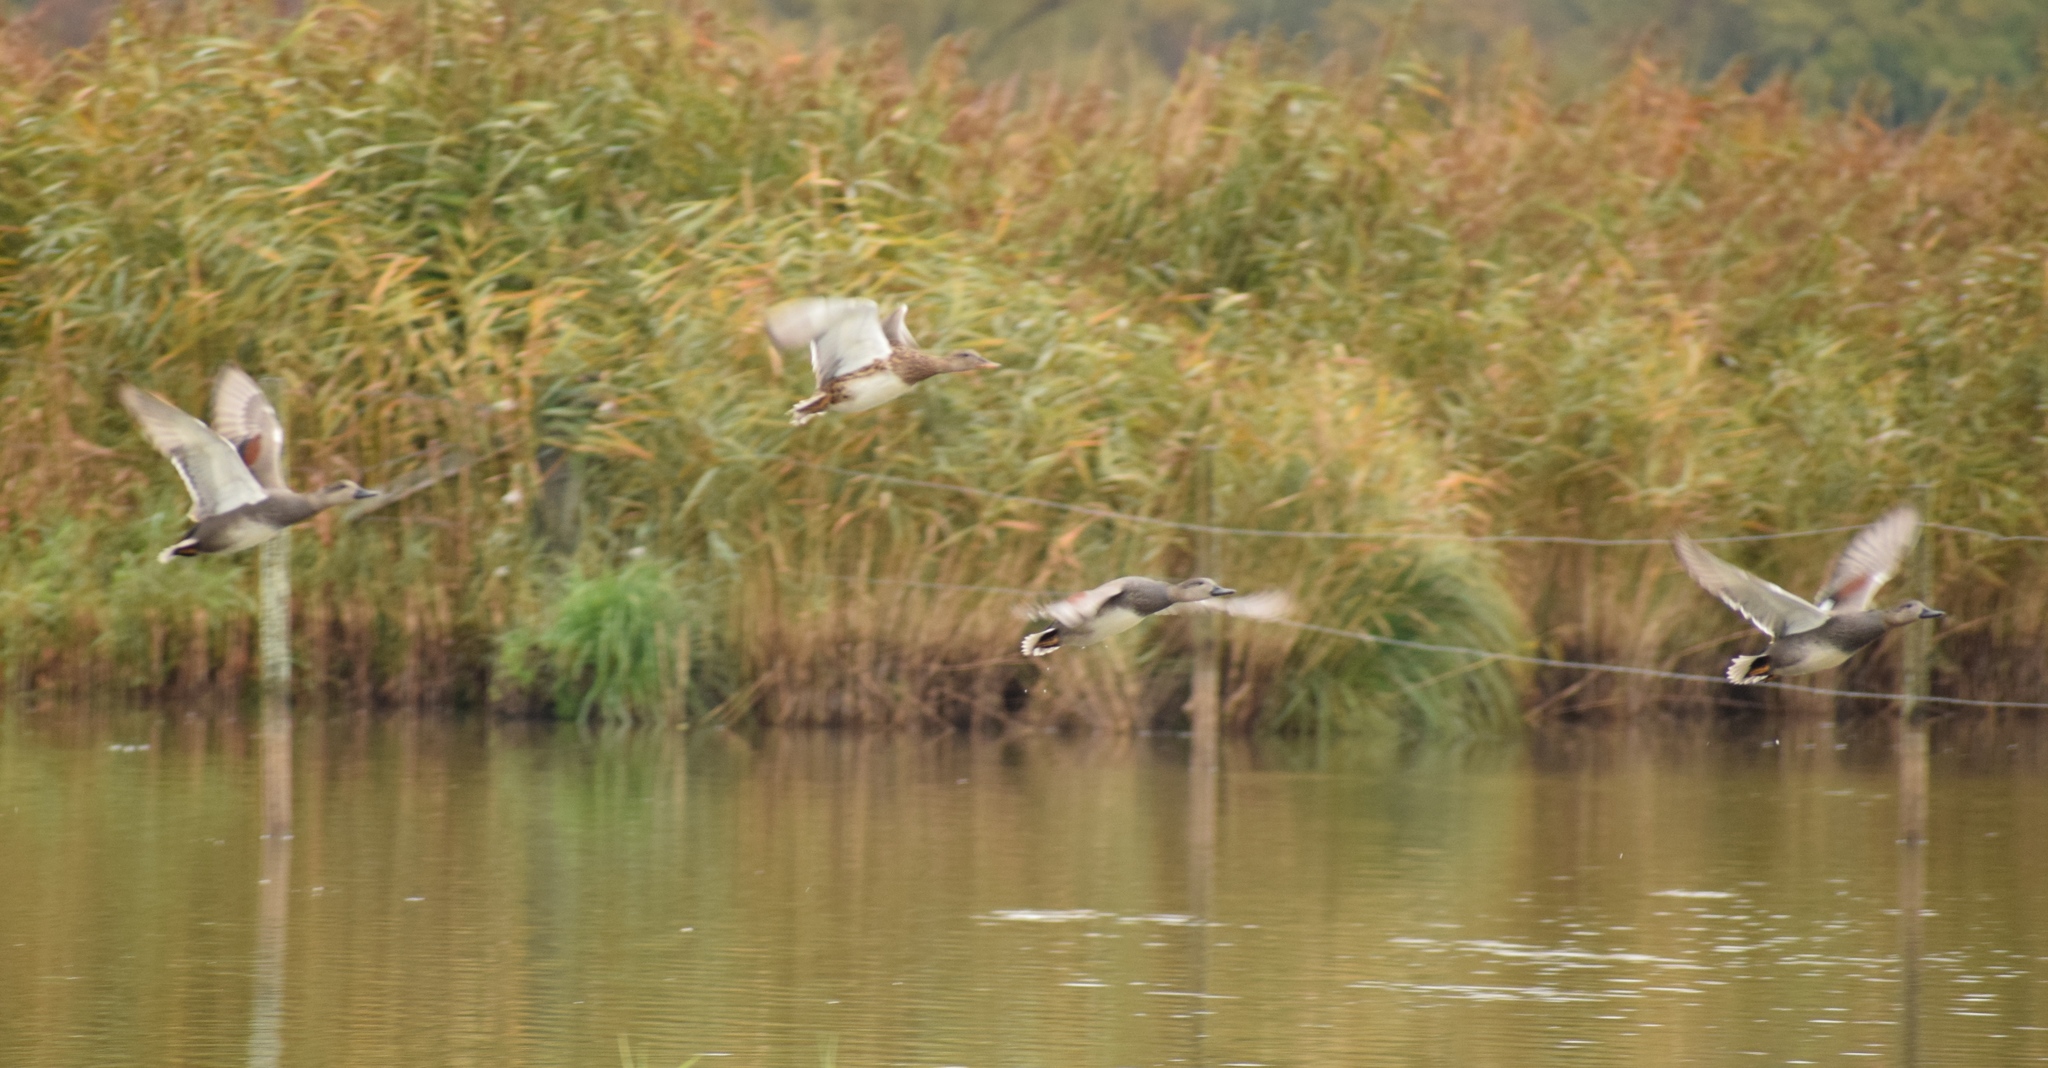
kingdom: Animalia
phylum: Chordata
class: Aves
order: Anseriformes
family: Anatidae
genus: Mareca
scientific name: Mareca strepera
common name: Gadwall
